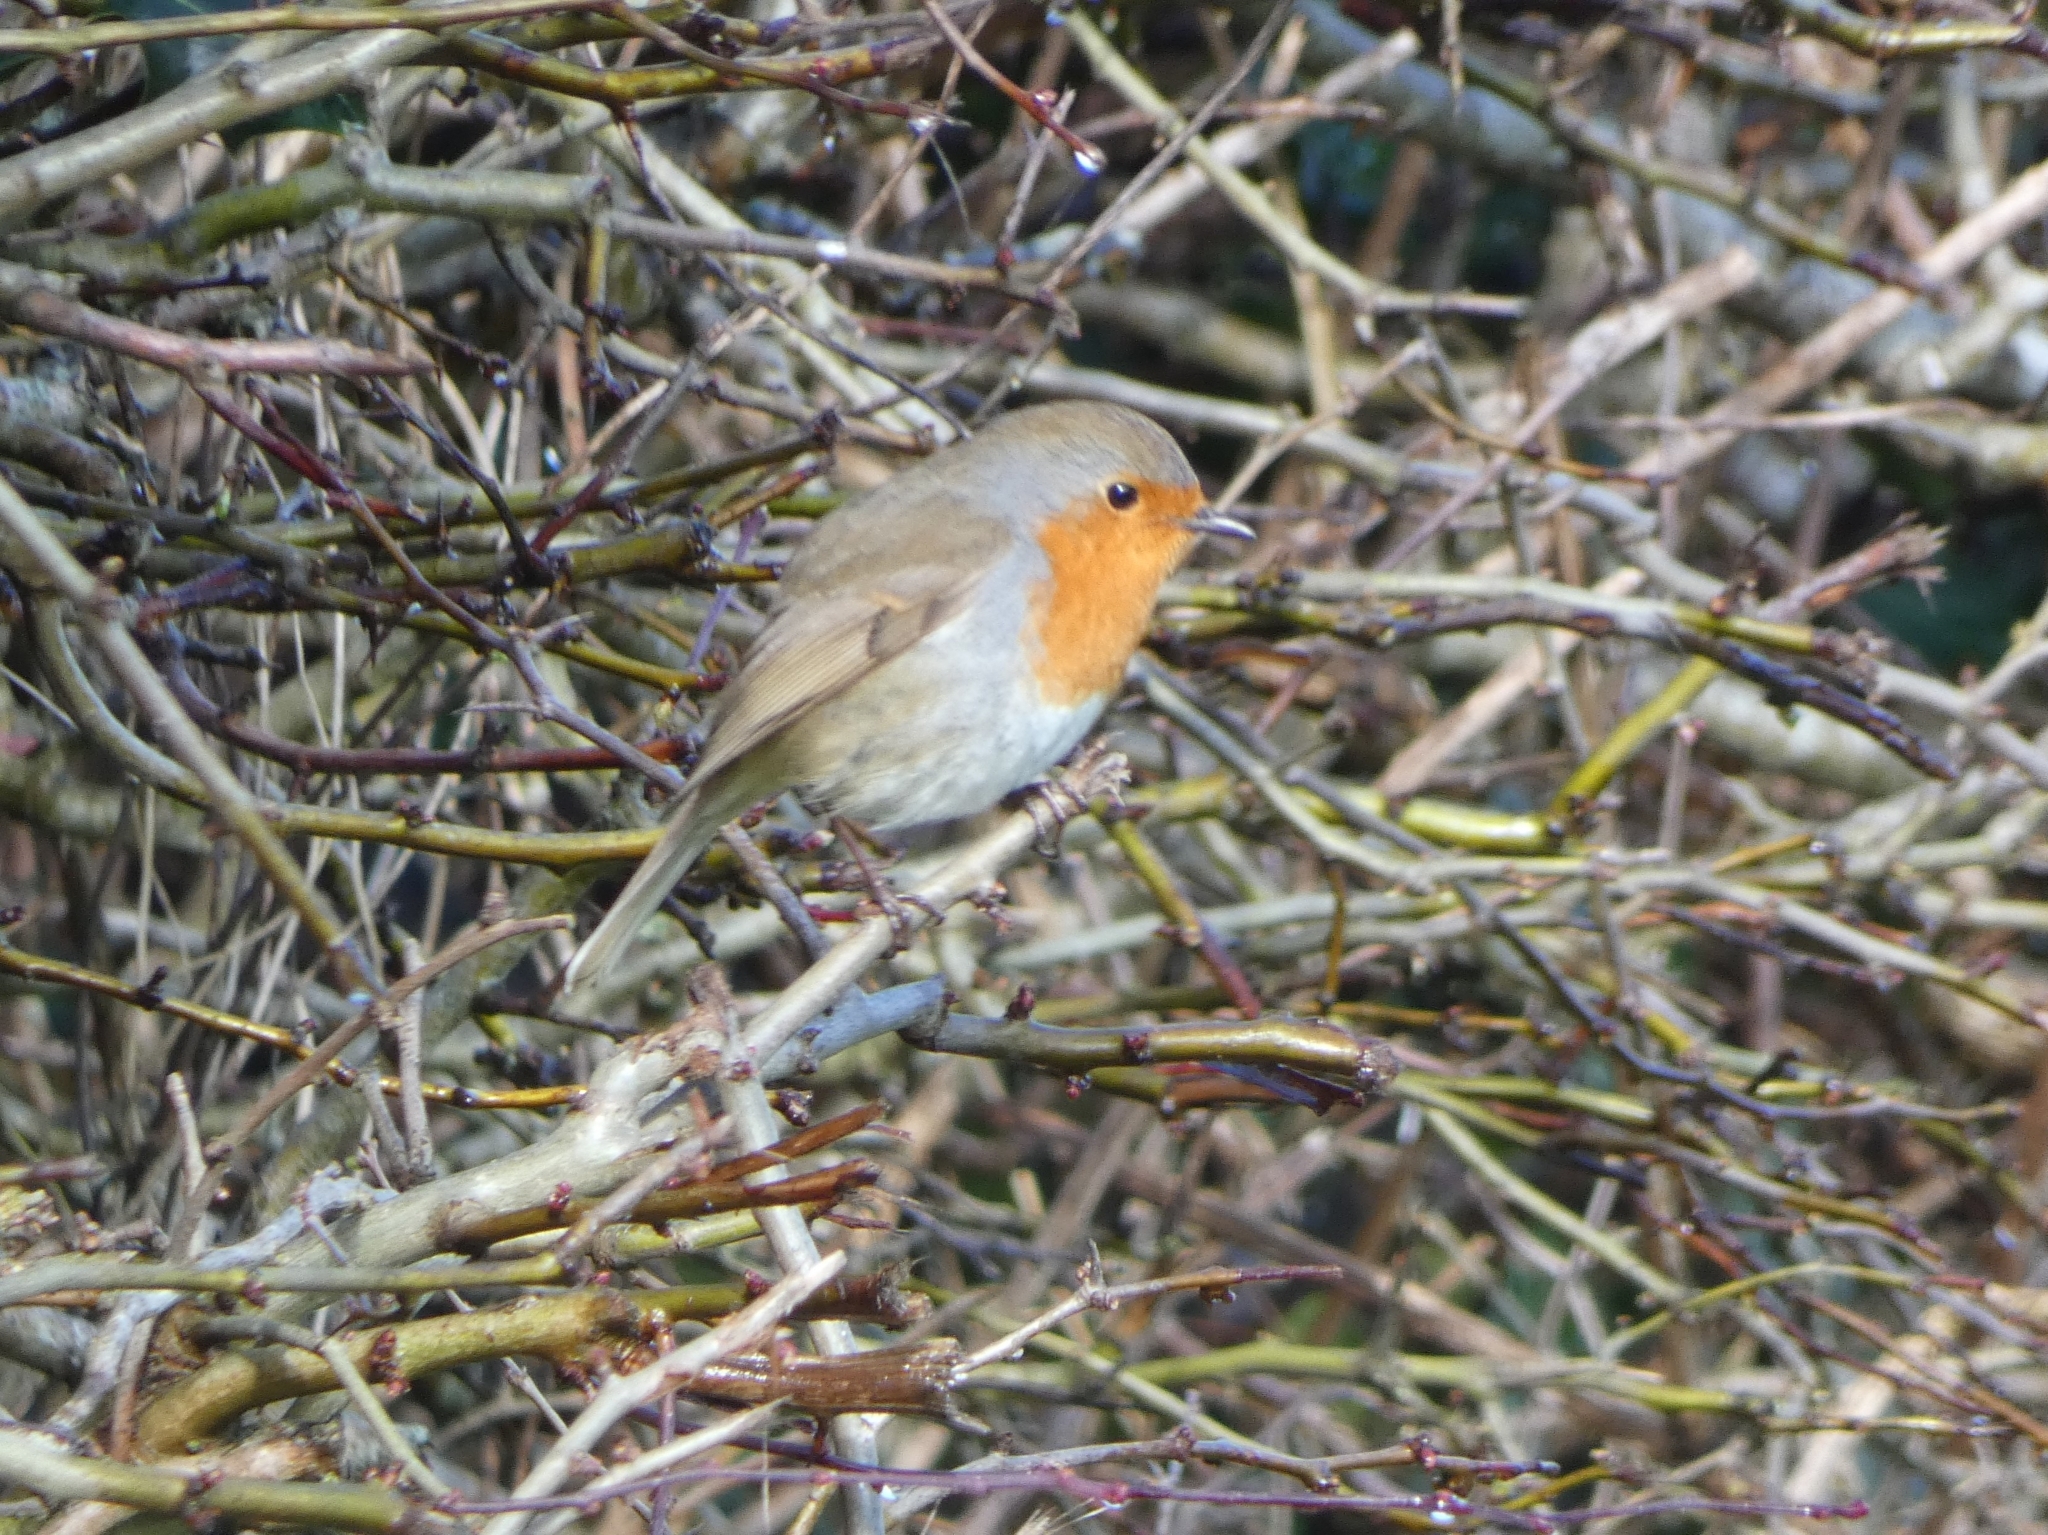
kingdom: Animalia
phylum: Chordata
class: Aves
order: Passeriformes
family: Muscicapidae
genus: Erithacus
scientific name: Erithacus rubecula
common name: European robin
